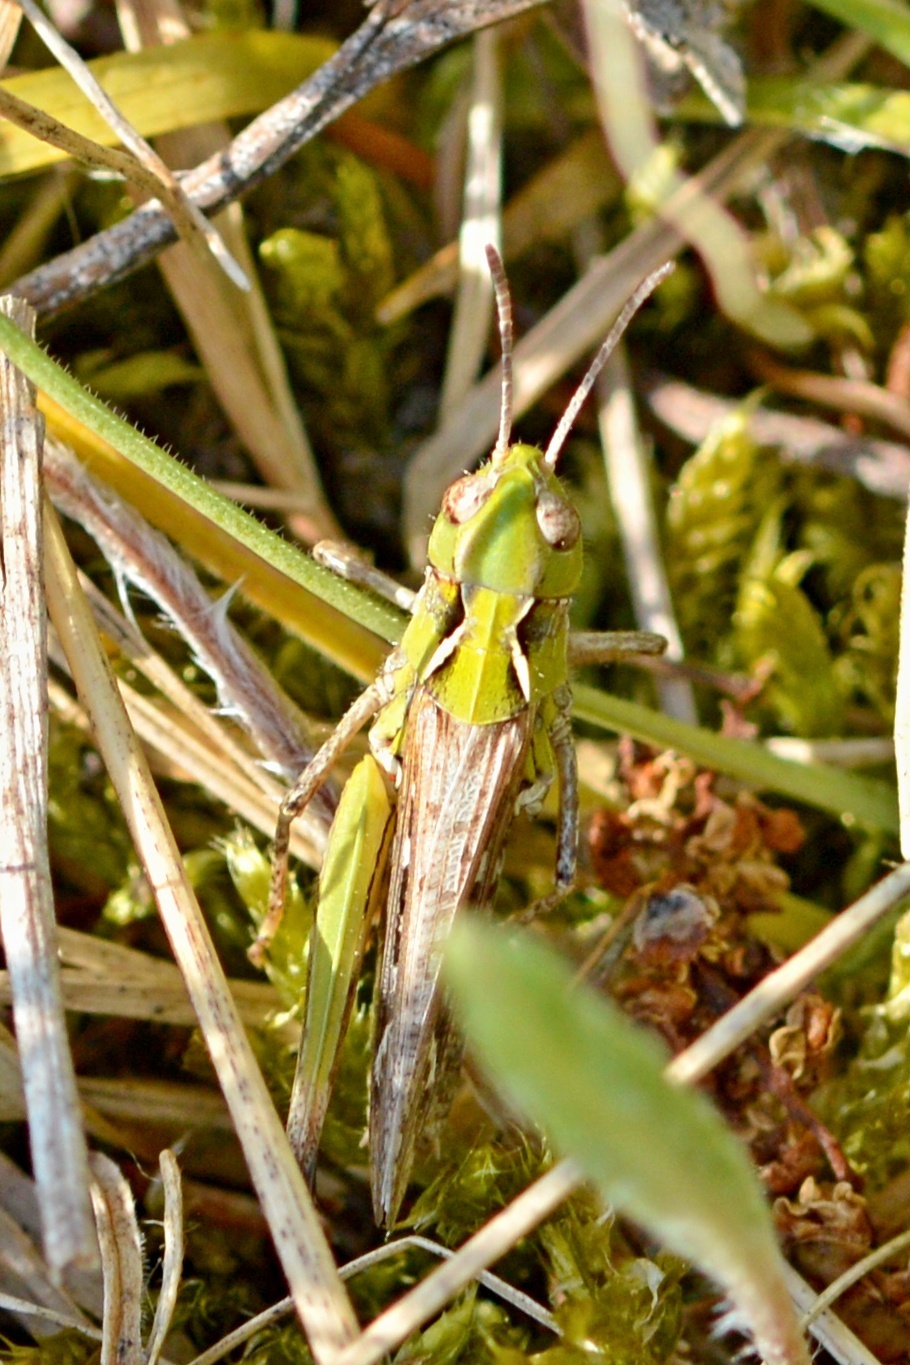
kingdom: Animalia
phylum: Arthropoda
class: Insecta
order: Orthoptera
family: Acrididae
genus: Myrmeleotettix
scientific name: Myrmeleotettix maculatus
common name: Mottled grasshopper
